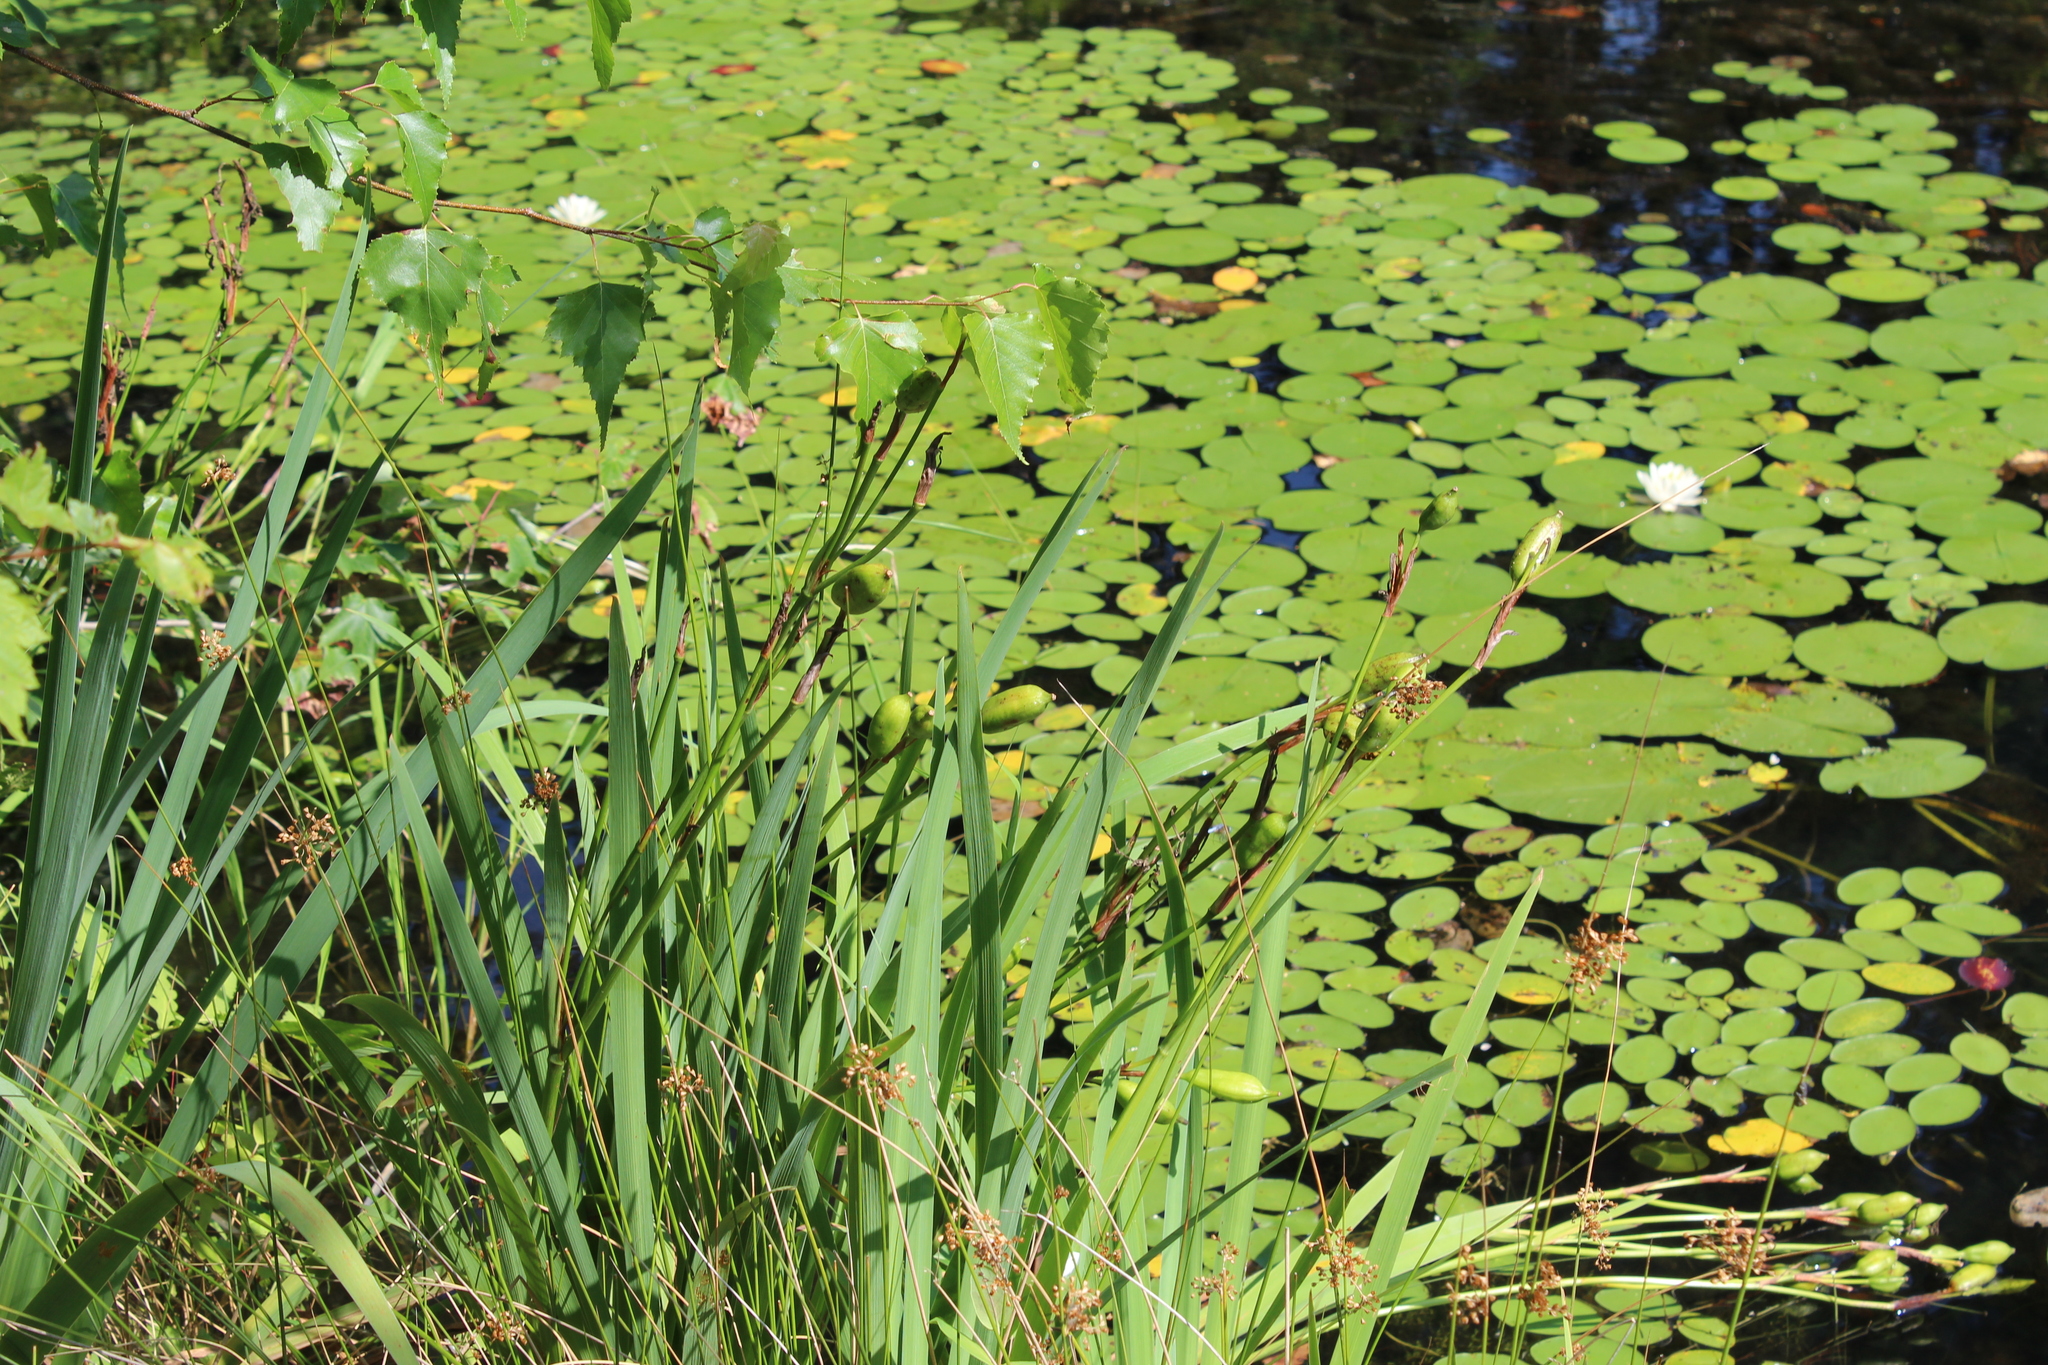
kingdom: Plantae
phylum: Tracheophyta
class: Liliopsida
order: Asparagales
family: Iridaceae
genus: Iris
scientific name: Iris versicolor
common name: Purple iris
